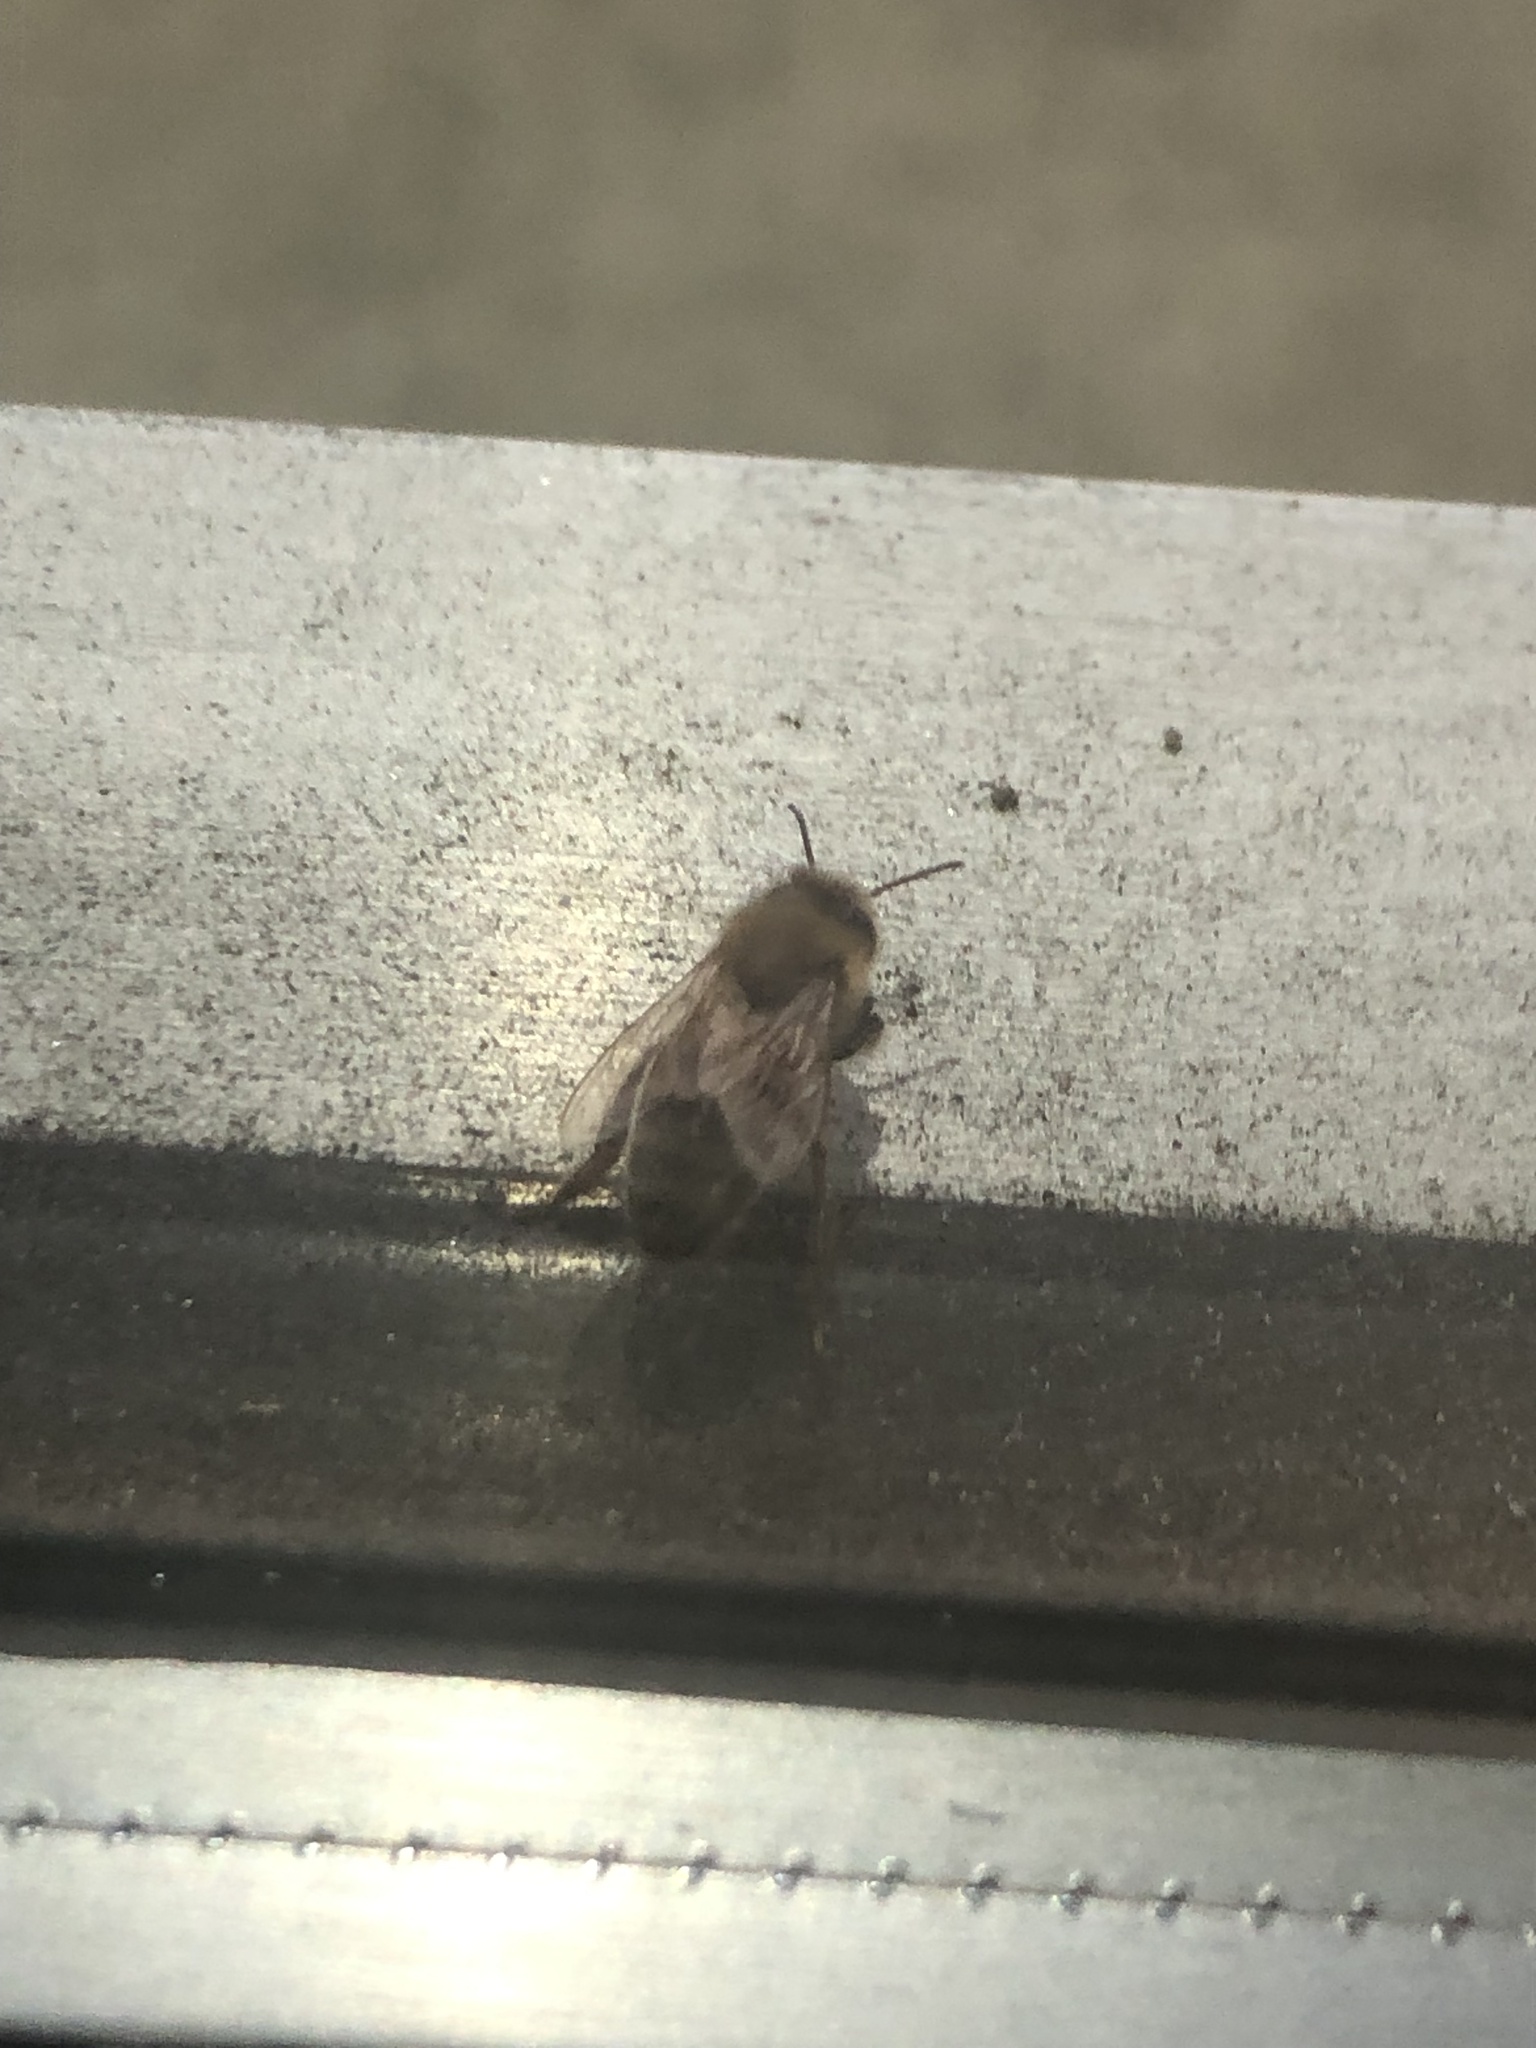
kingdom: Animalia
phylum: Arthropoda
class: Insecta
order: Hymenoptera
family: Apidae
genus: Apis
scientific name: Apis mellifera
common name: Honey bee
